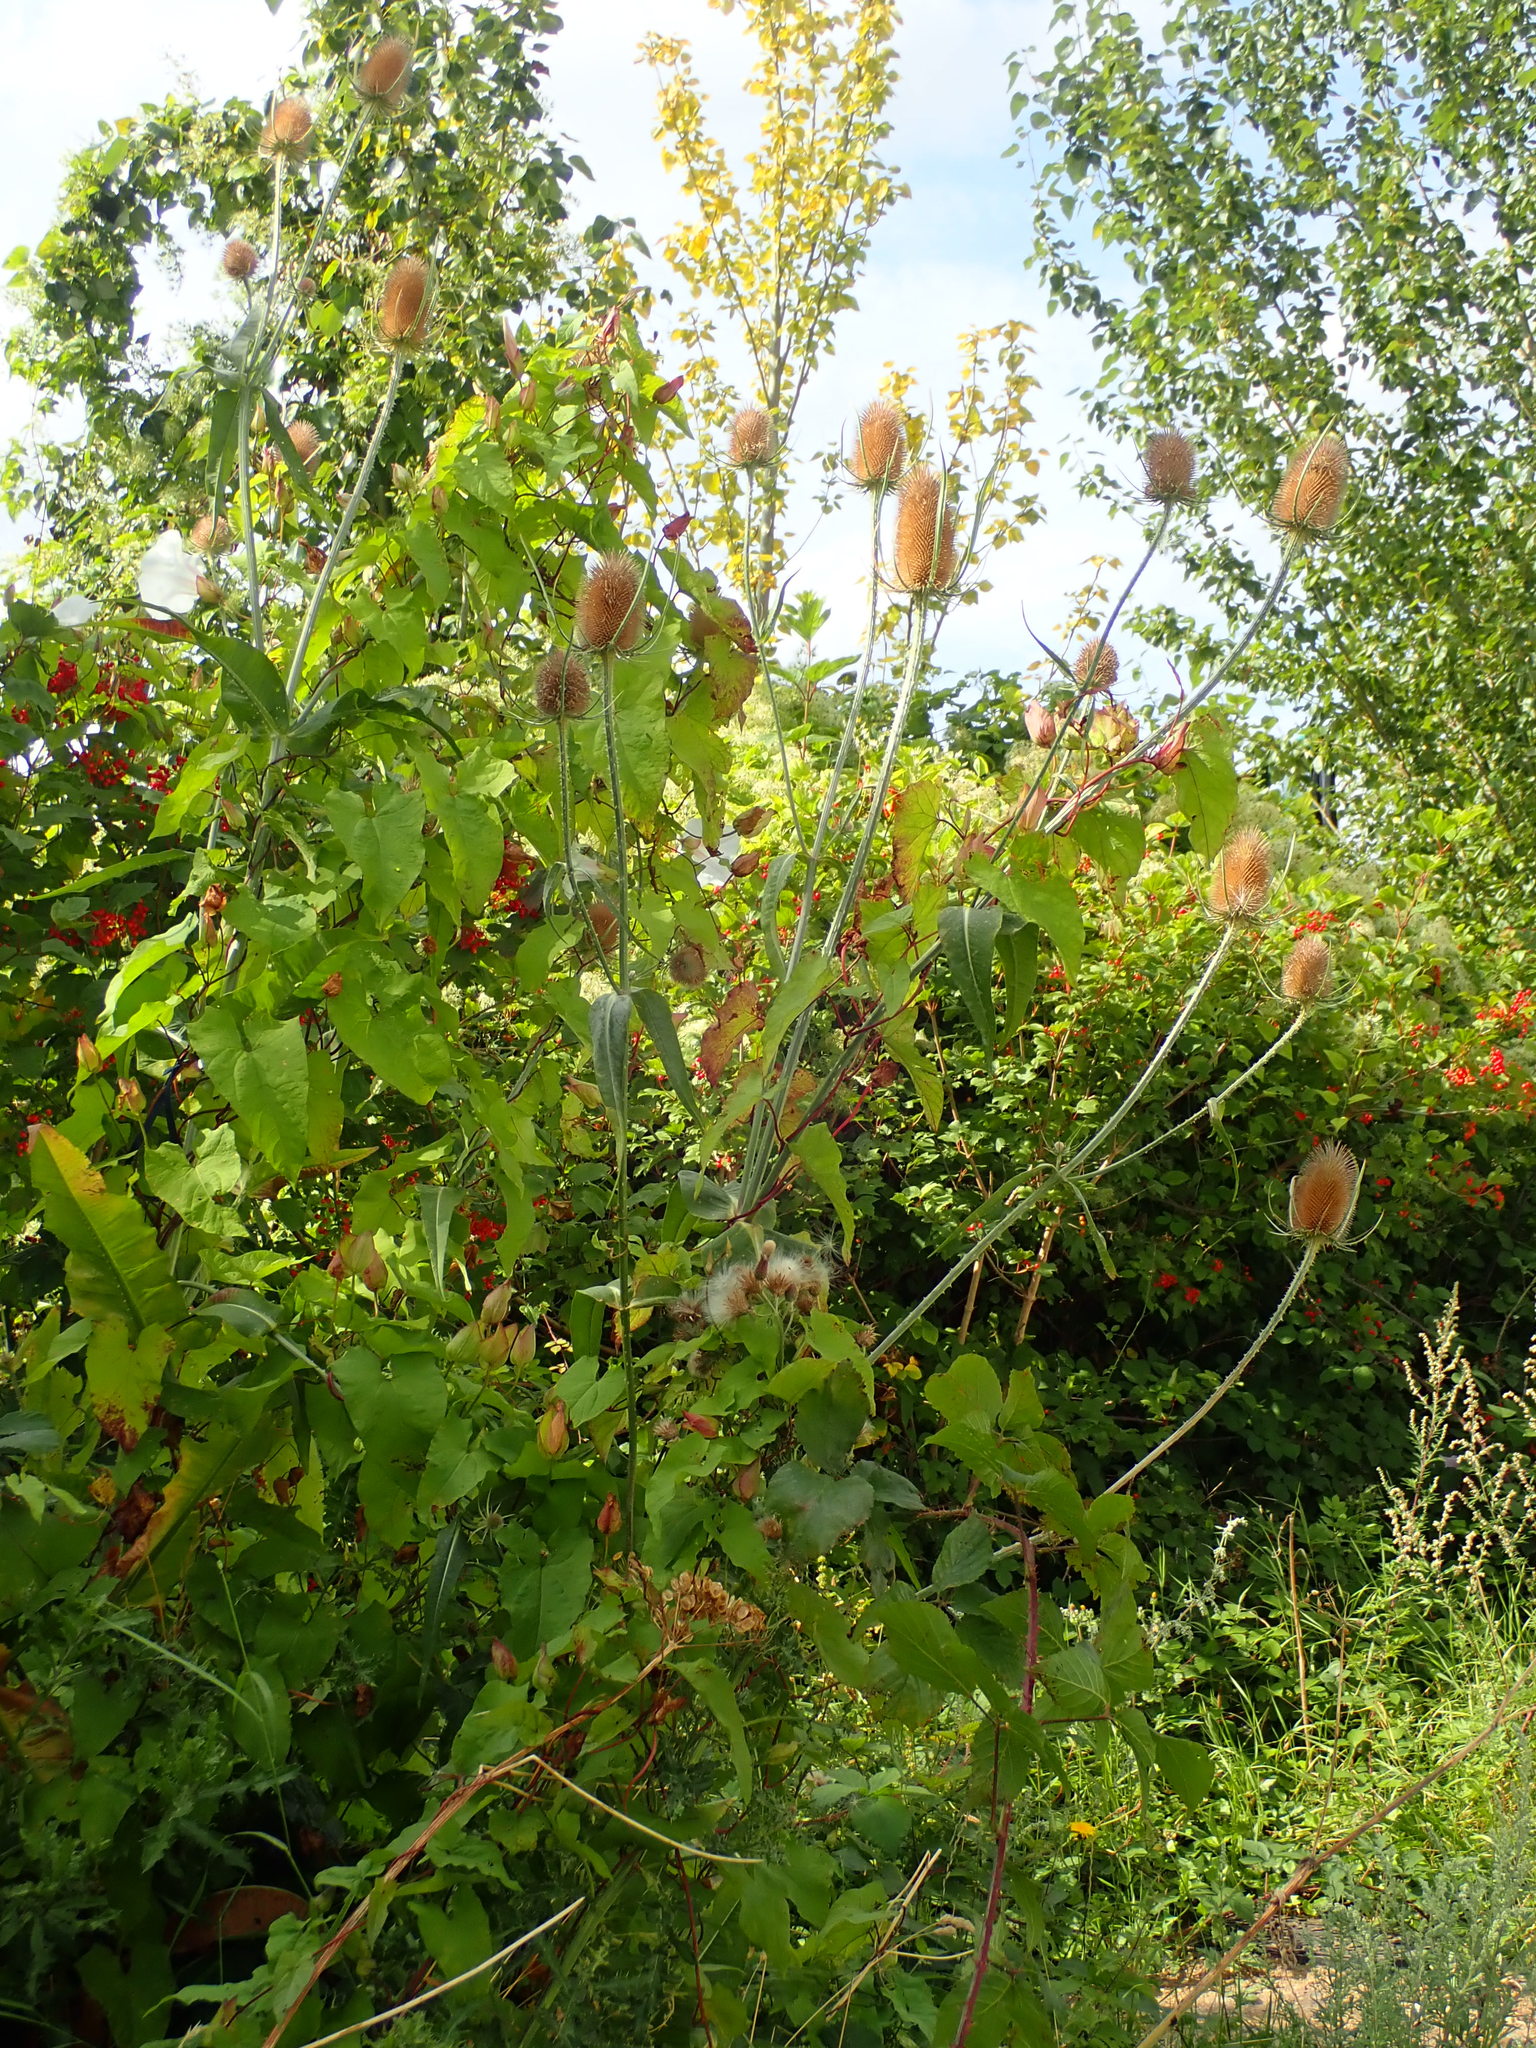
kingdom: Plantae
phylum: Tracheophyta
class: Magnoliopsida
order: Dipsacales
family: Caprifoliaceae
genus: Dipsacus
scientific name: Dipsacus fullonum
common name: Teasel
